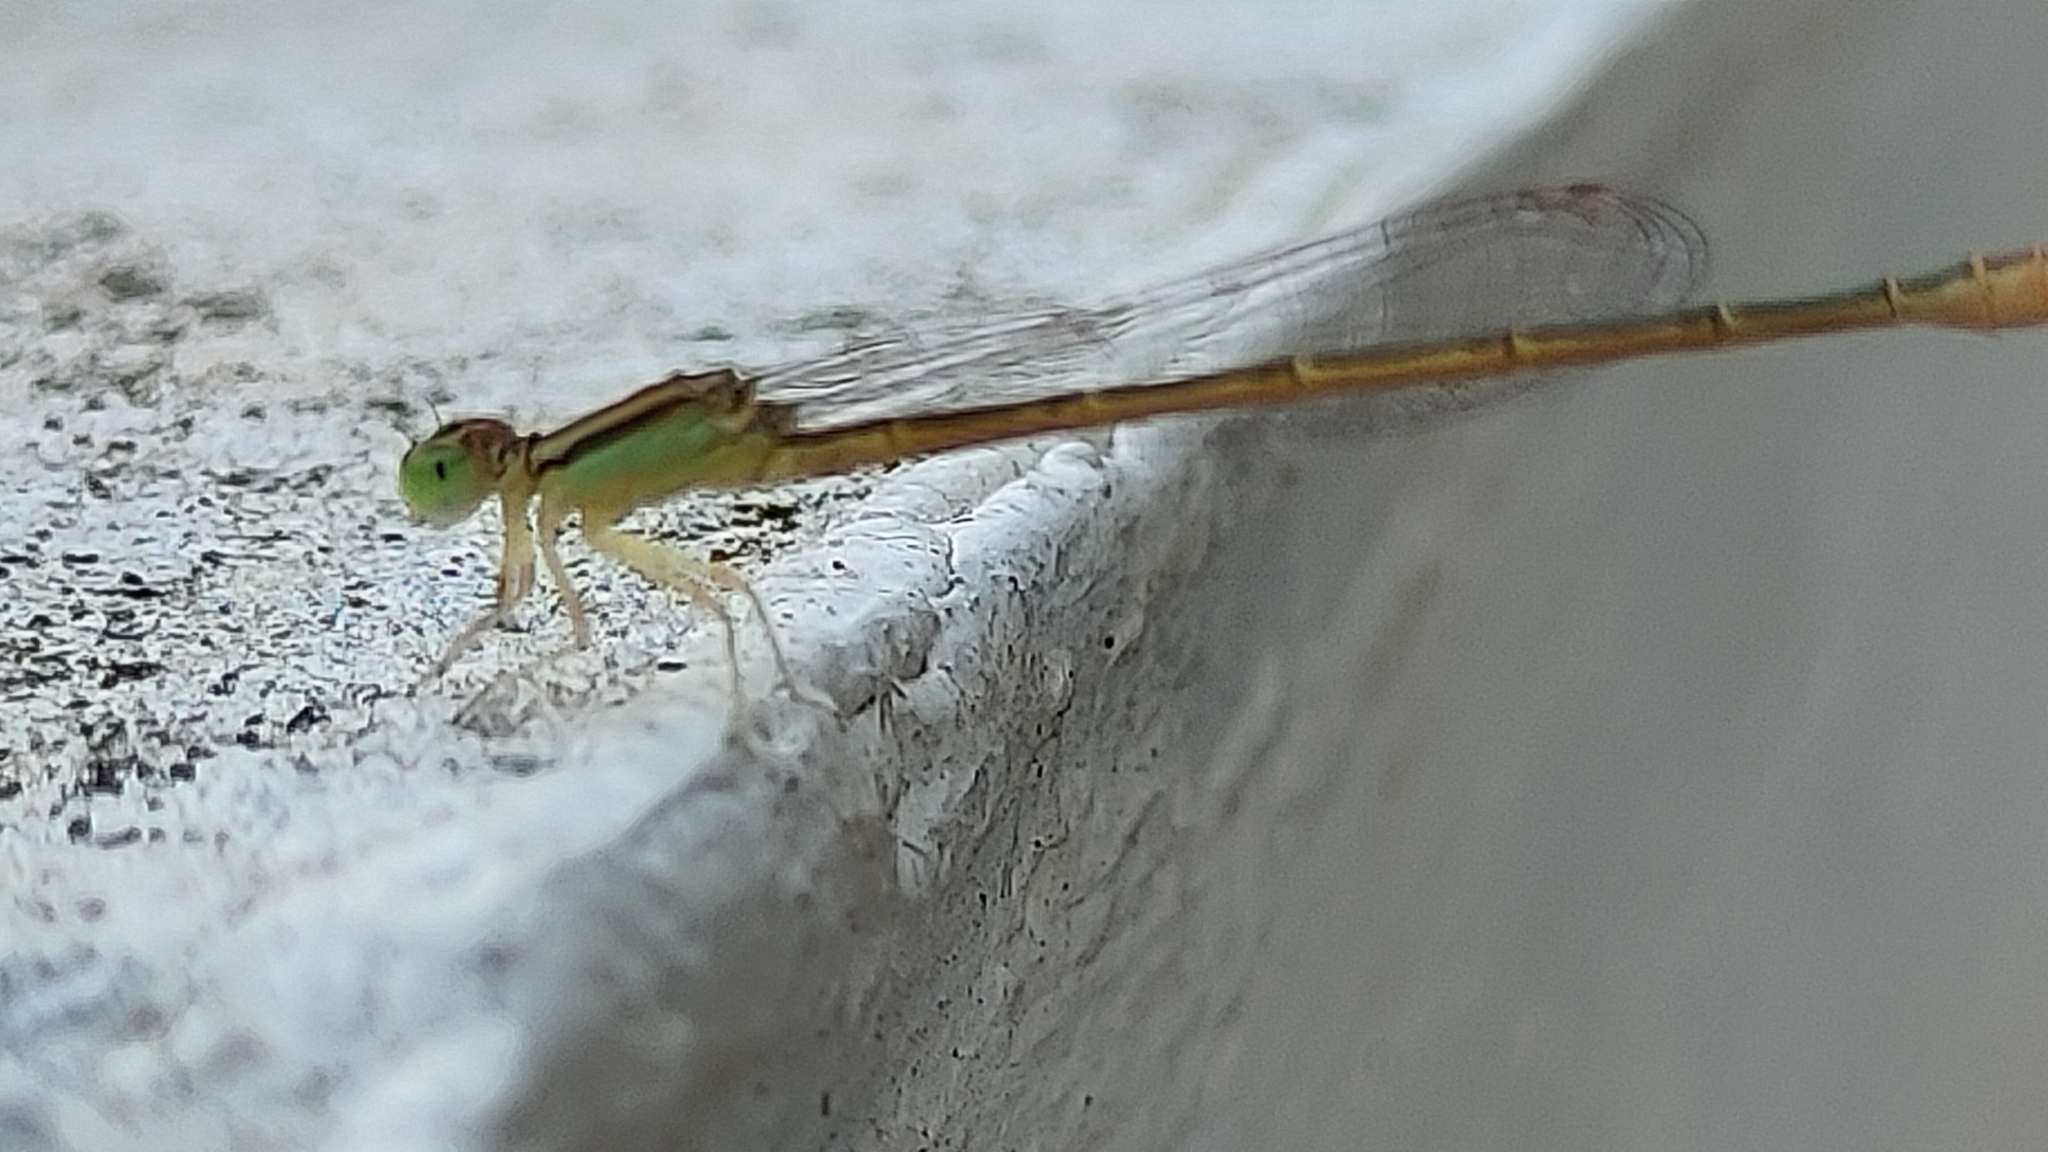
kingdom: Animalia
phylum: Arthropoda
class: Insecta
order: Odonata
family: Coenagrionidae
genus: Ischnura
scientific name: Ischnura rubilio
